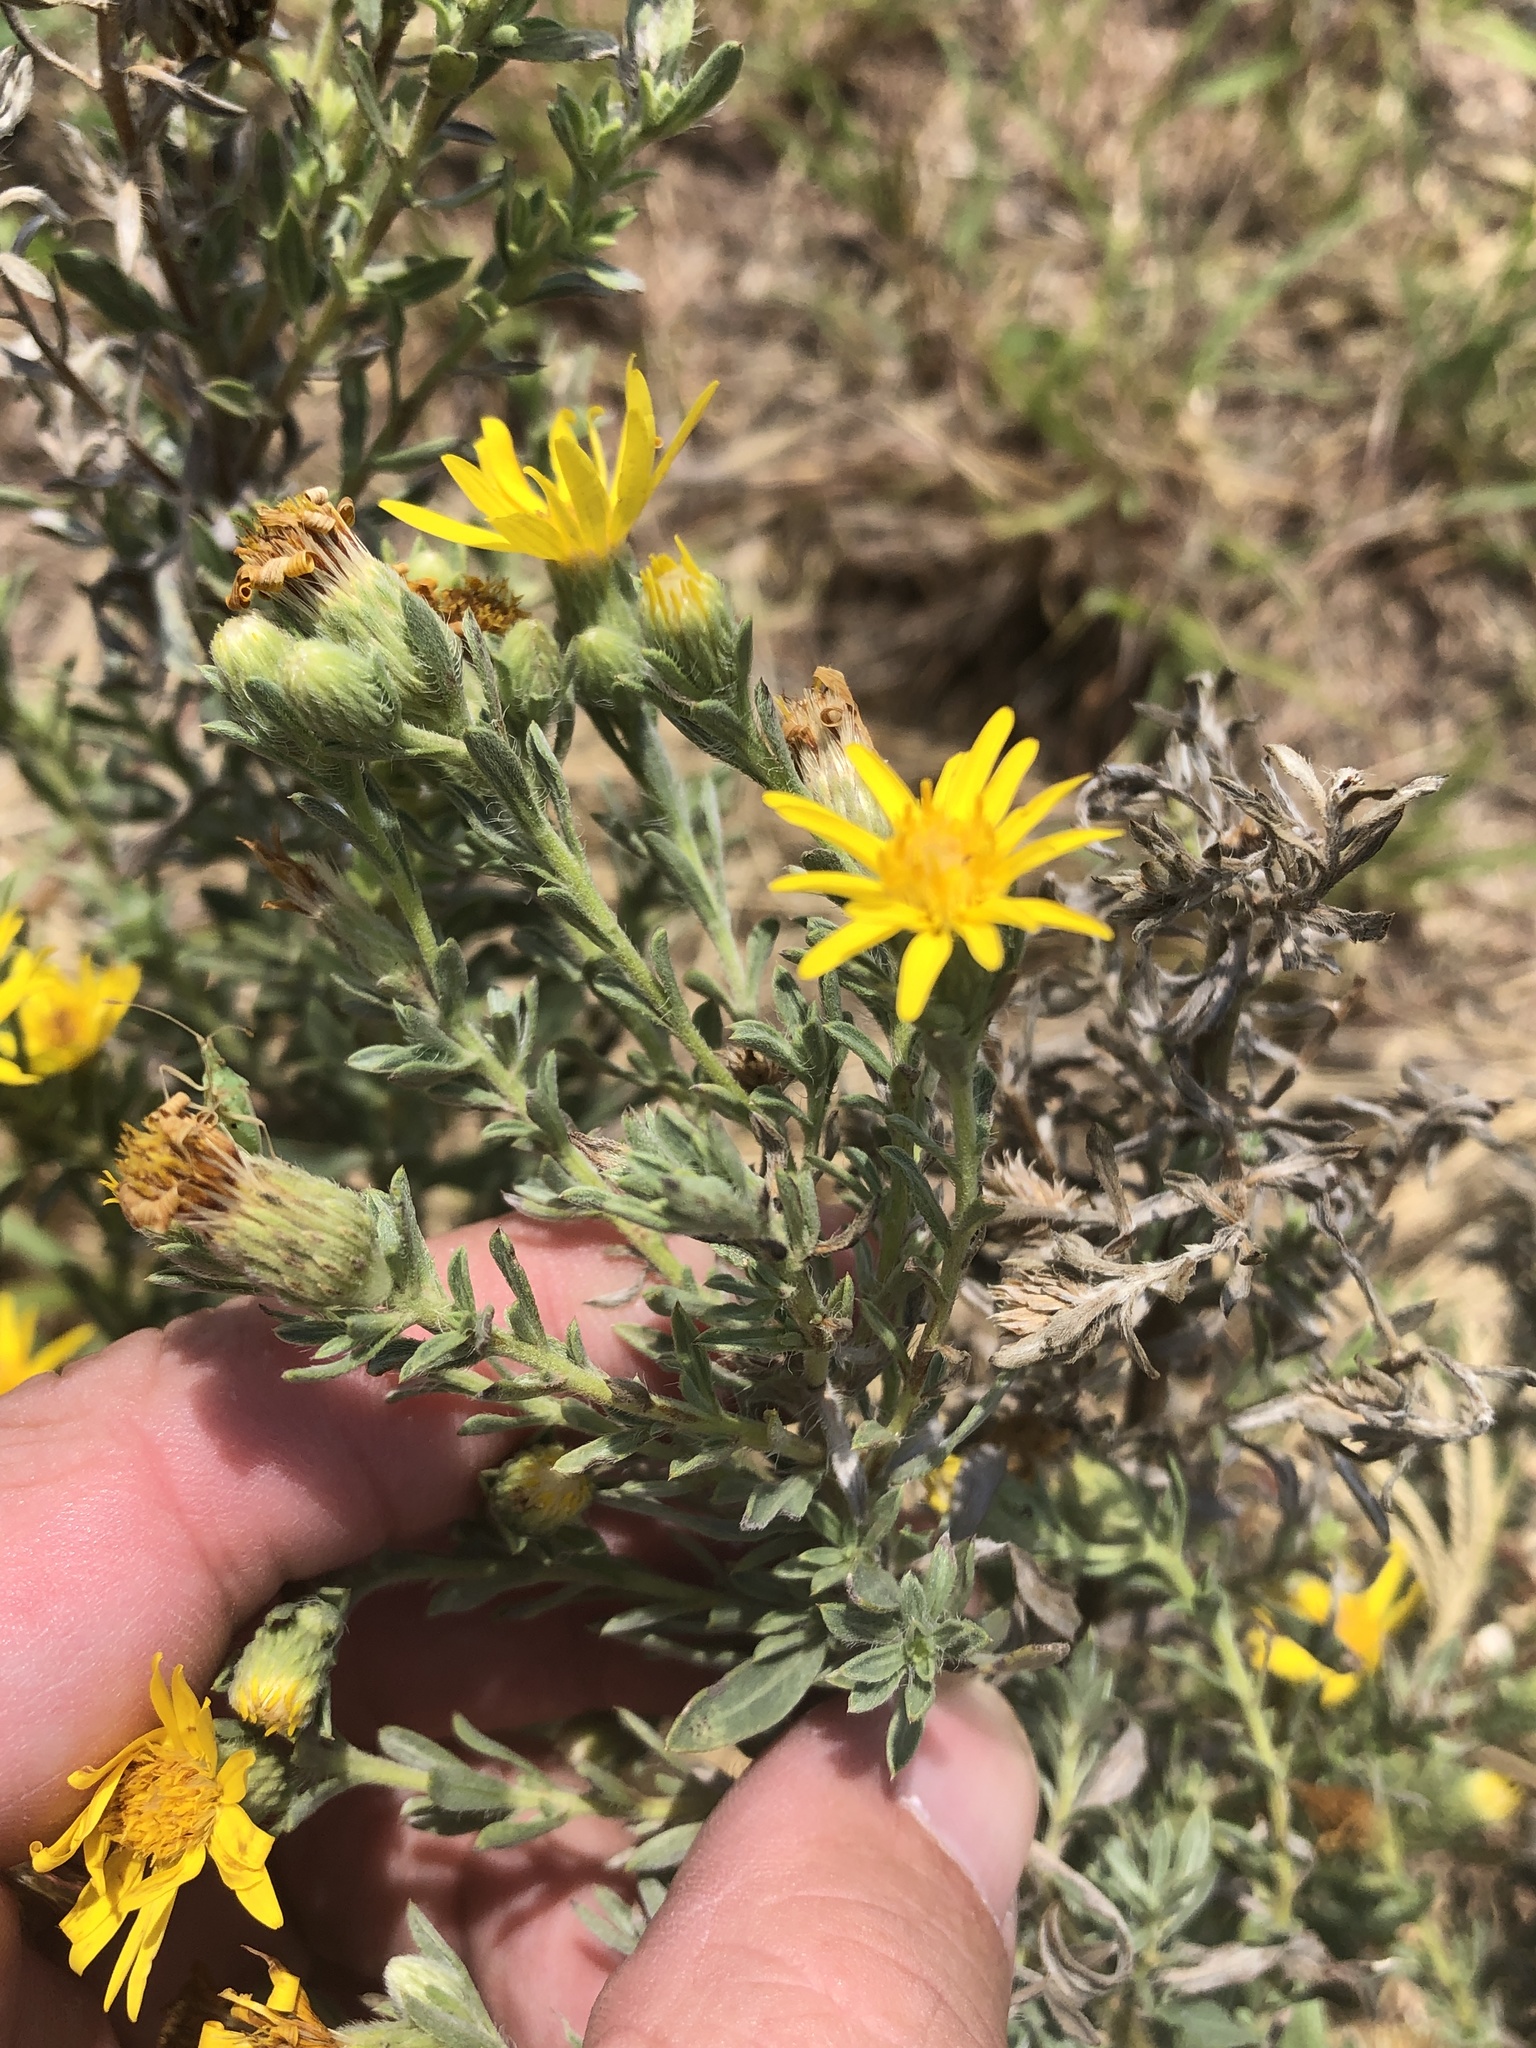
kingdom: Plantae
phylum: Tracheophyta
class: Magnoliopsida
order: Asterales
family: Asteraceae
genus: Heterotheca
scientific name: Heterotheca canescens
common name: Hoary golden-aster
